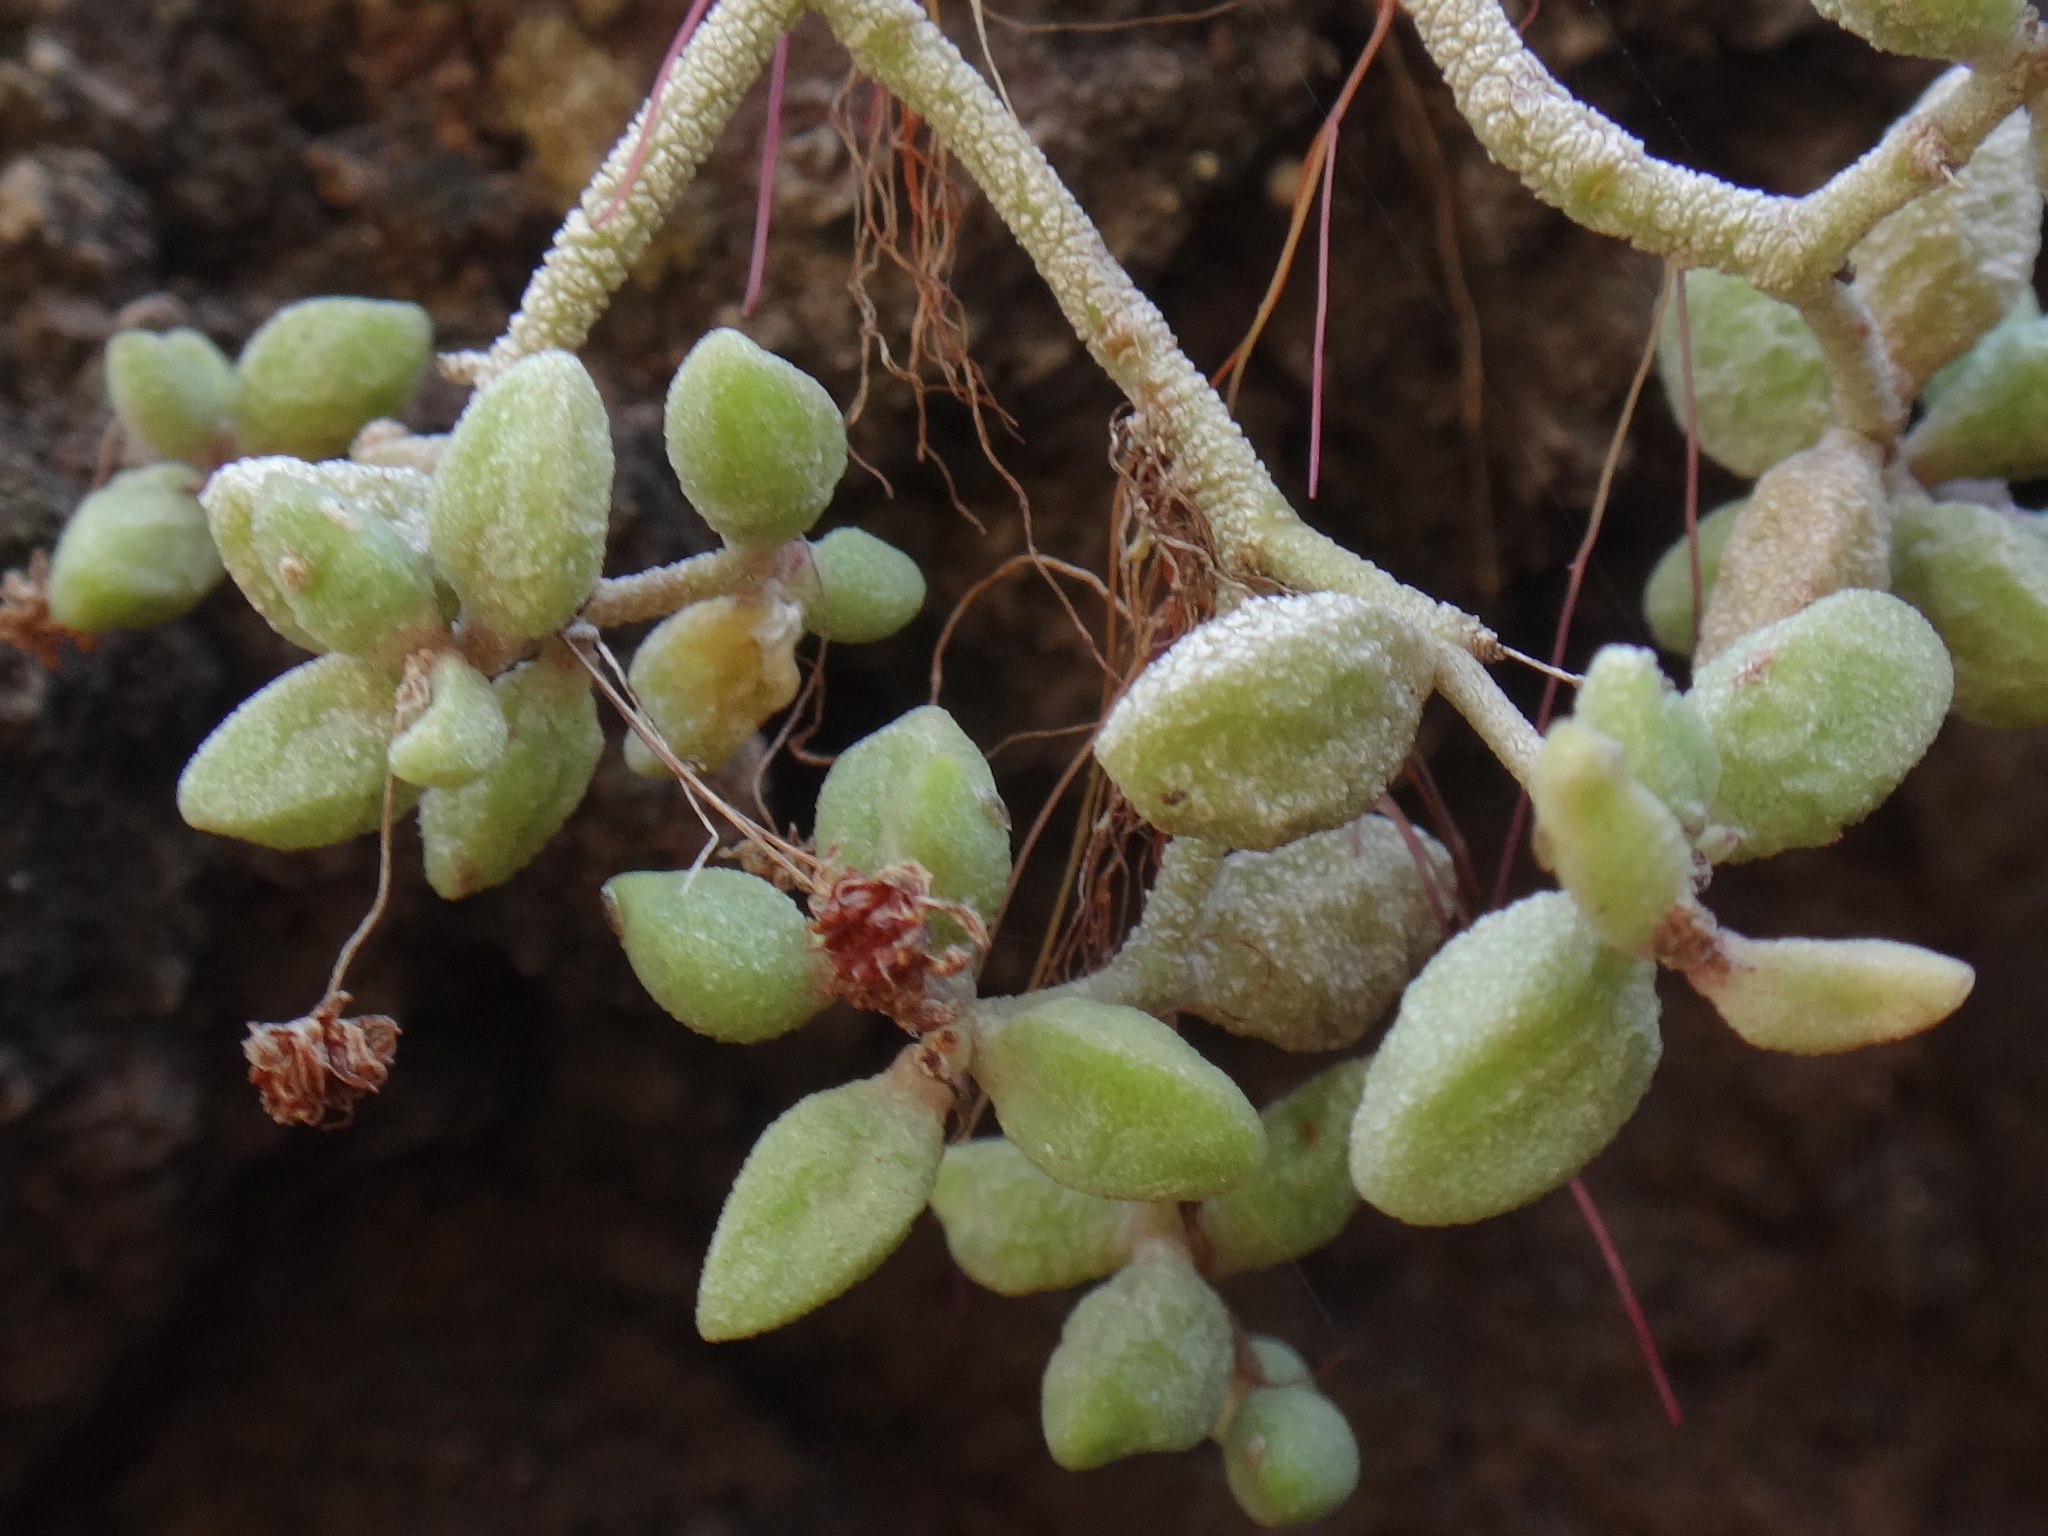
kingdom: Plantae
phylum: Tracheophyta
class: Magnoliopsida
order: Saxifragales
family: Crassulaceae
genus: Monanthes
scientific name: Monanthes laxiflora
